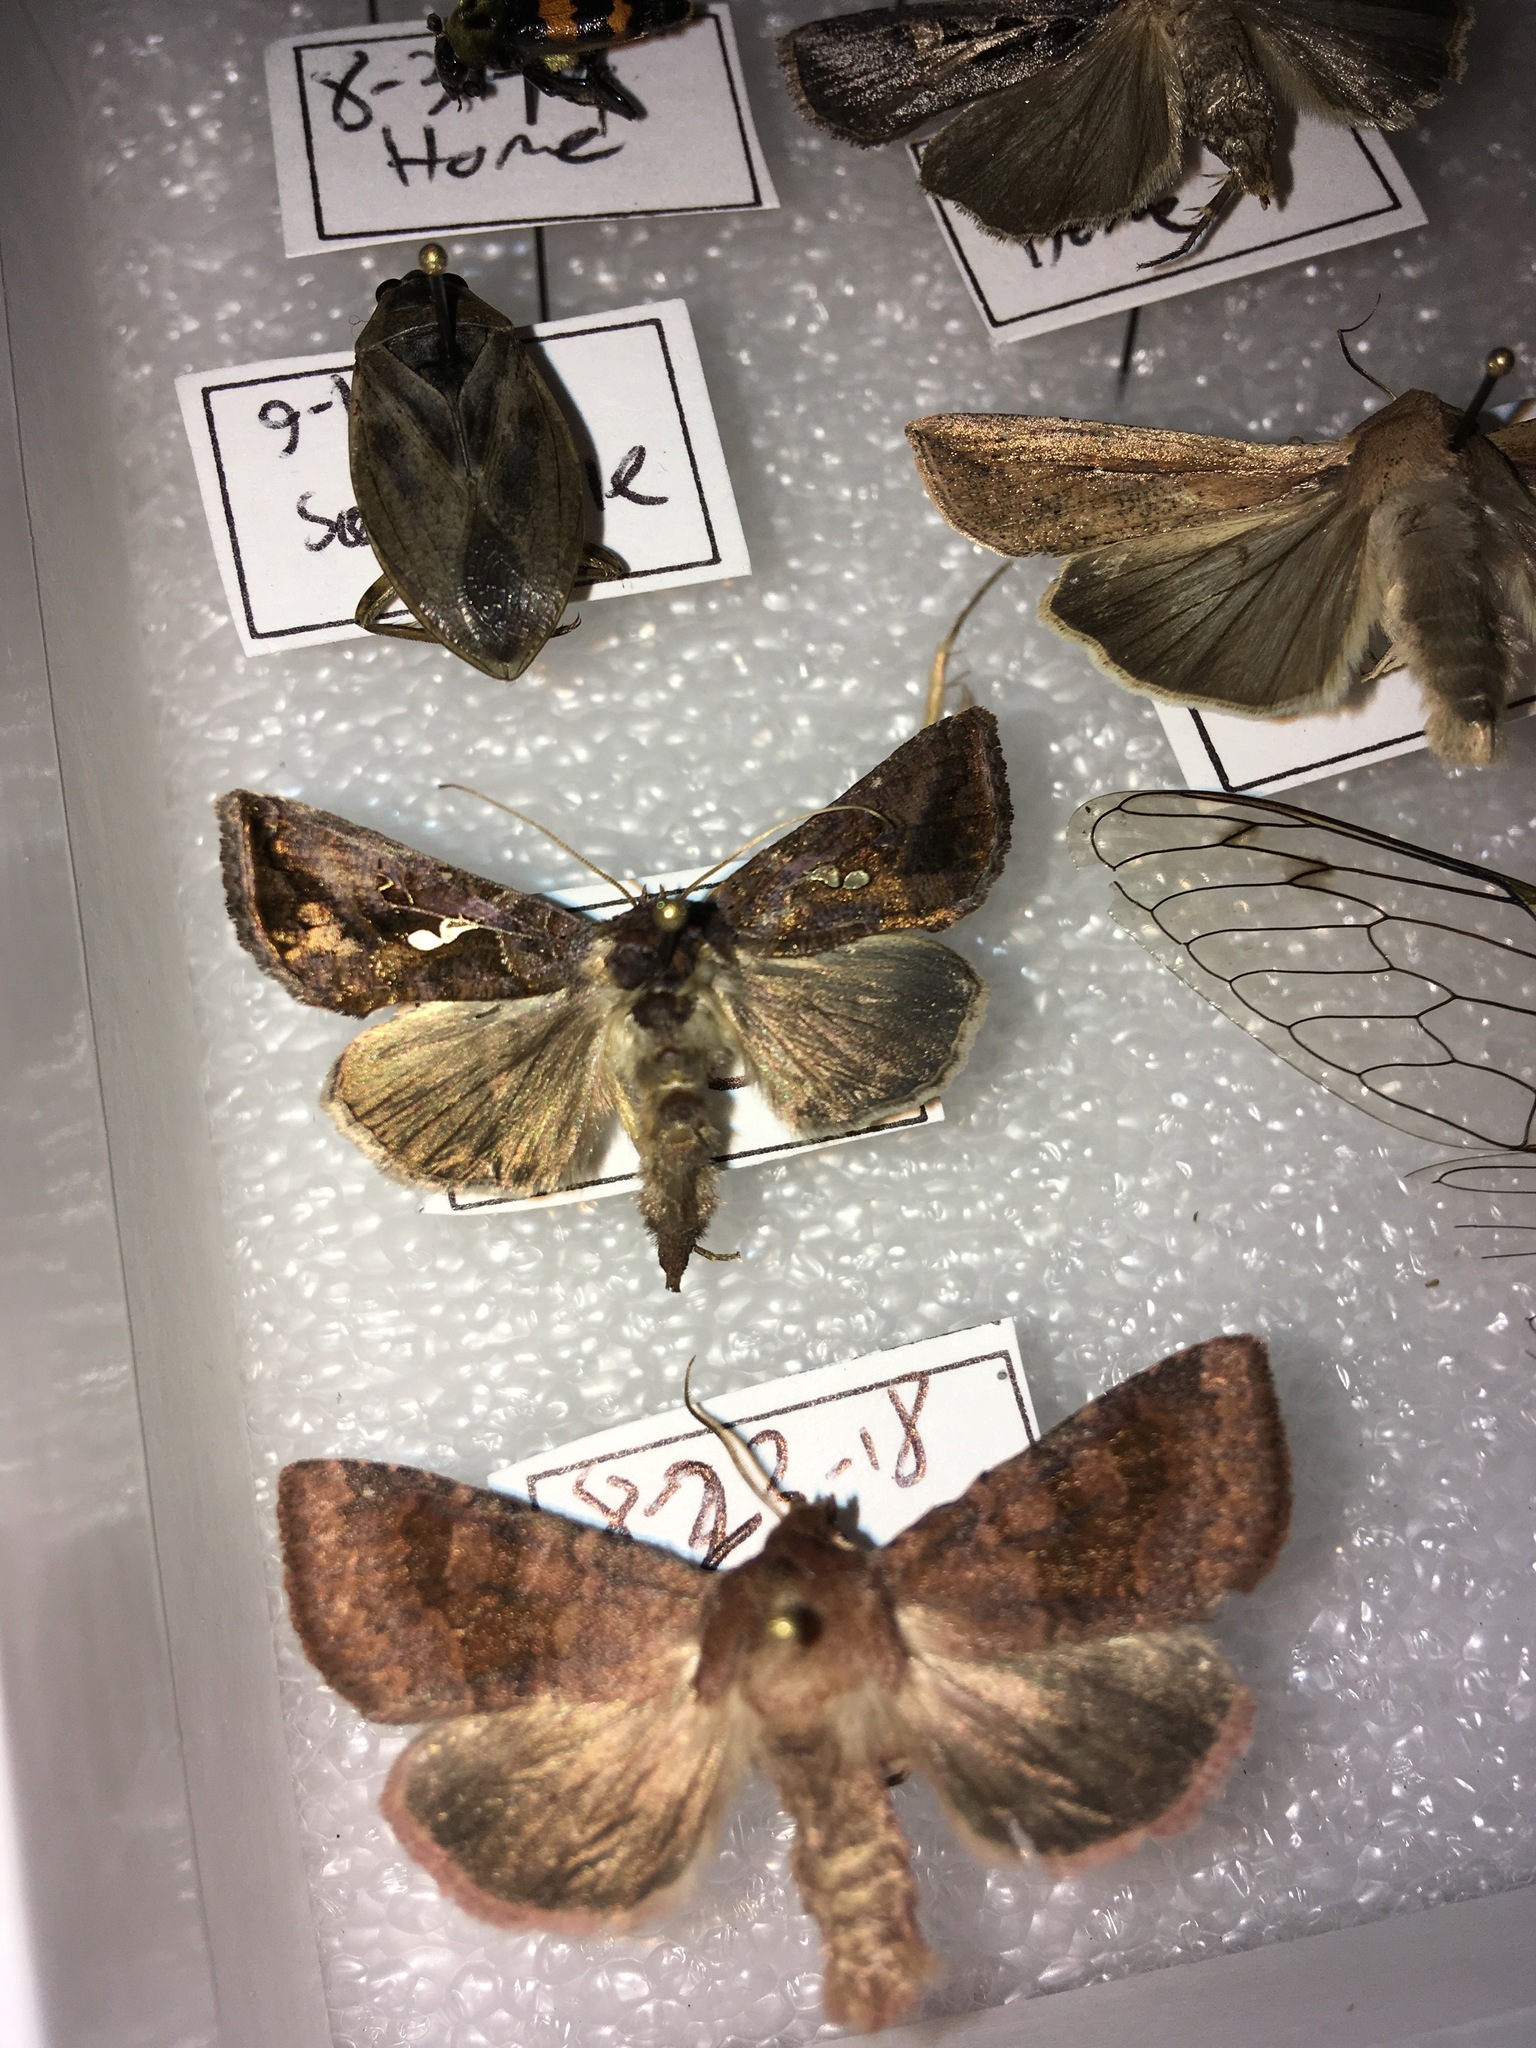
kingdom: Animalia
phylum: Arthropoda
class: Insecta
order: Lepidoptera
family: Noctuidae
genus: Autographa
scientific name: Autographa precationis
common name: Common looper moth
